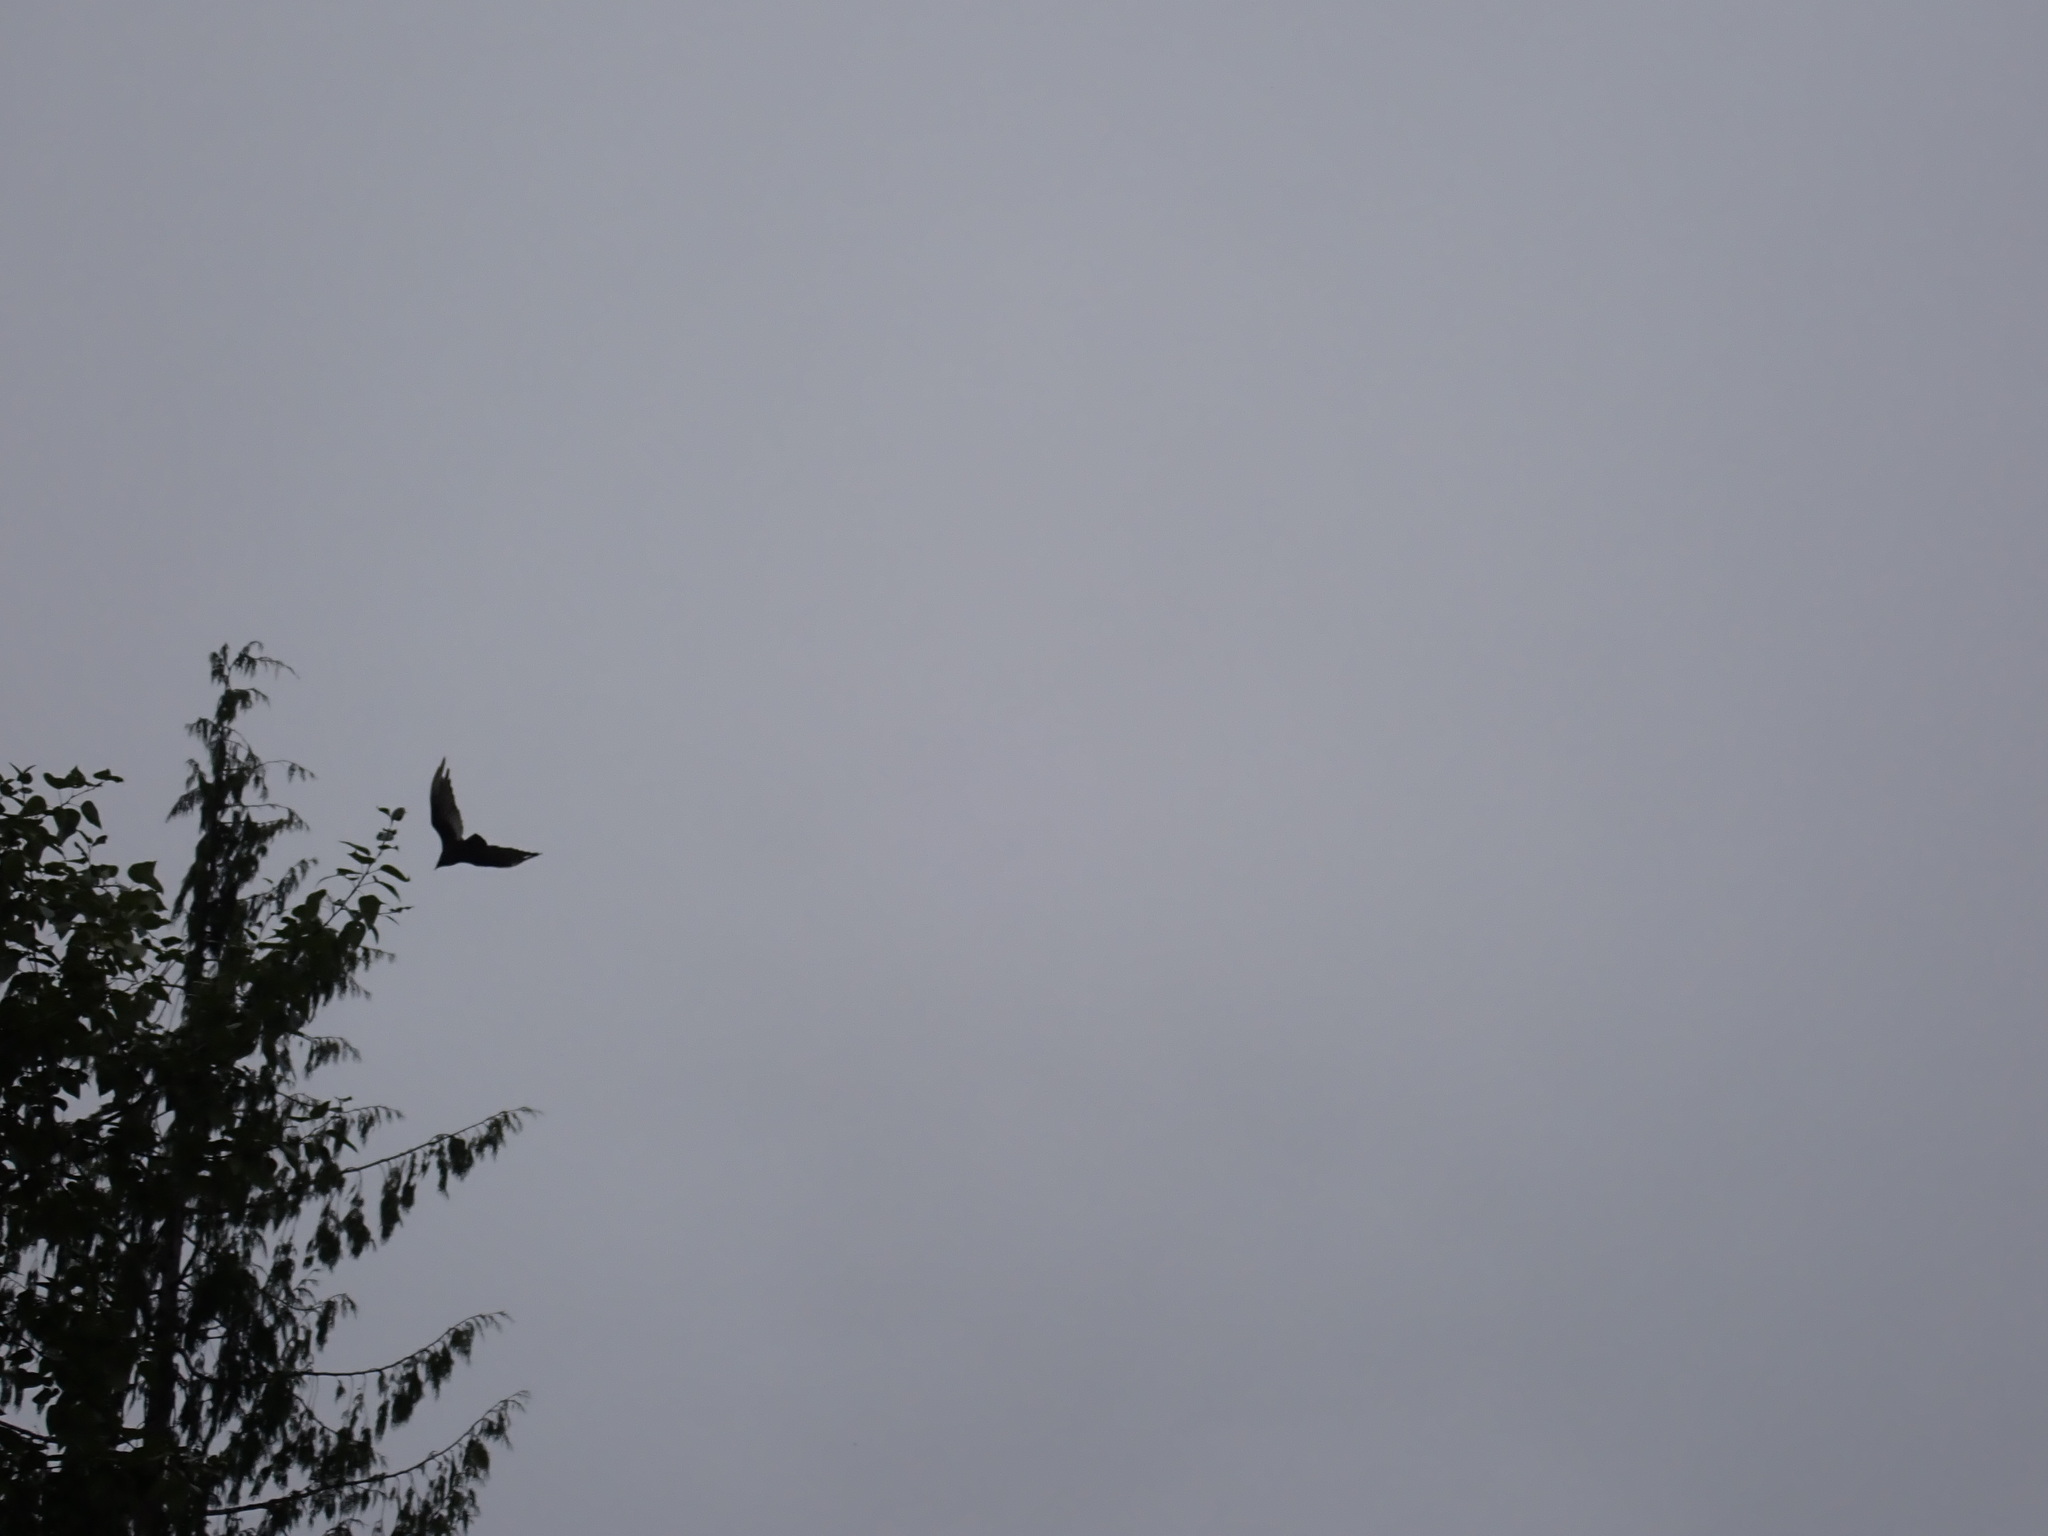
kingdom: Animalia
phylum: Chordata
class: Aves
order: Accipitriformes
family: Cathartidae
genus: Cathartes
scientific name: Cathartes aura
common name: Turkey vulture
